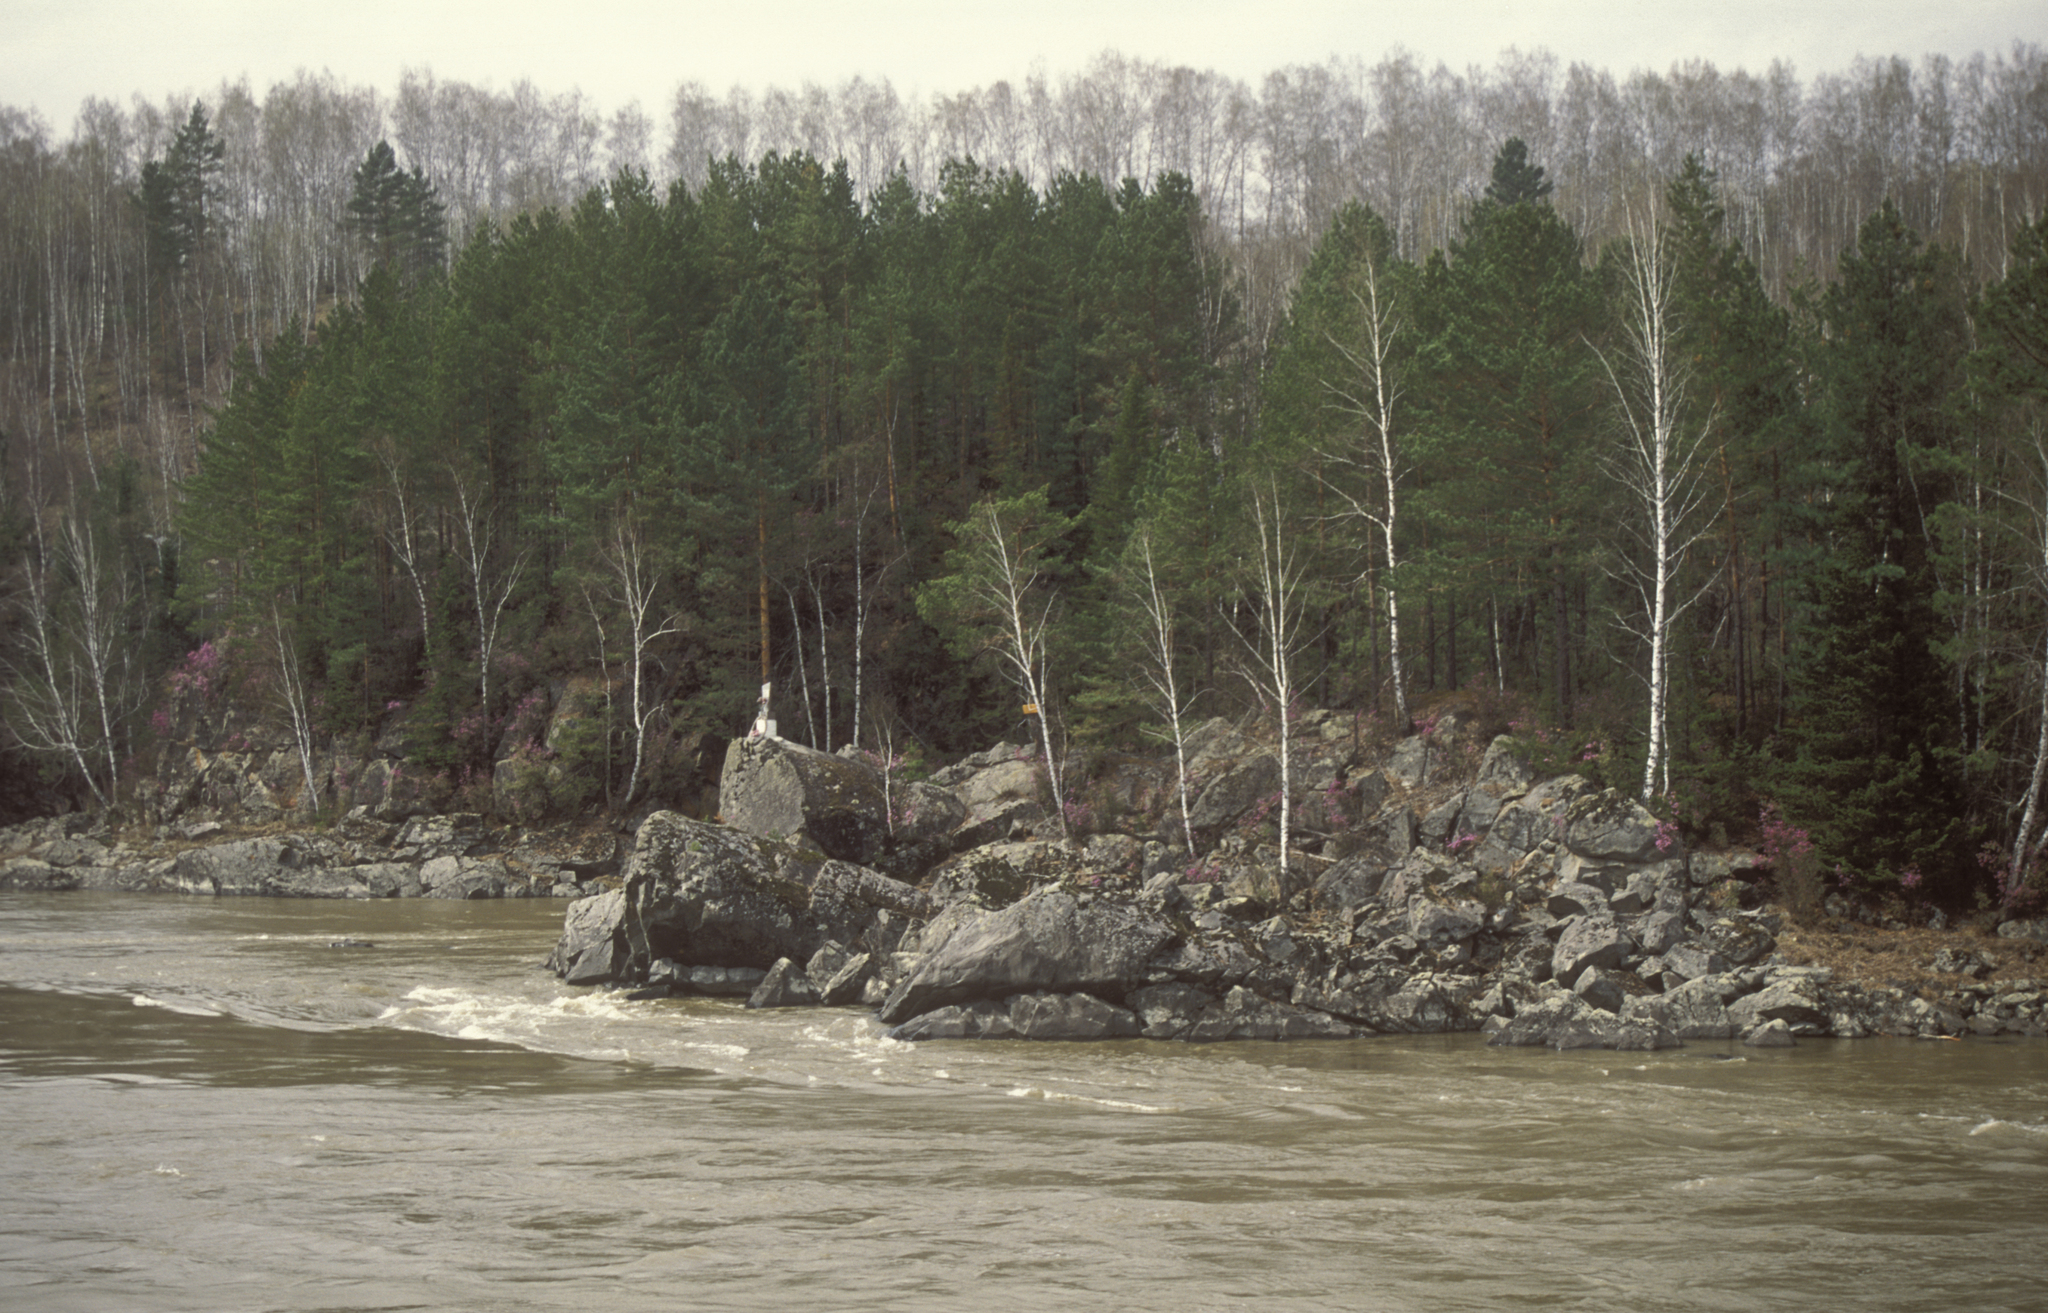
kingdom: Plantae
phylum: Tracheophyta
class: Pinopsida
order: Pinales
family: Pinaceae
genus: Pinus
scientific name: Pinus sylvestris
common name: Scots pine
